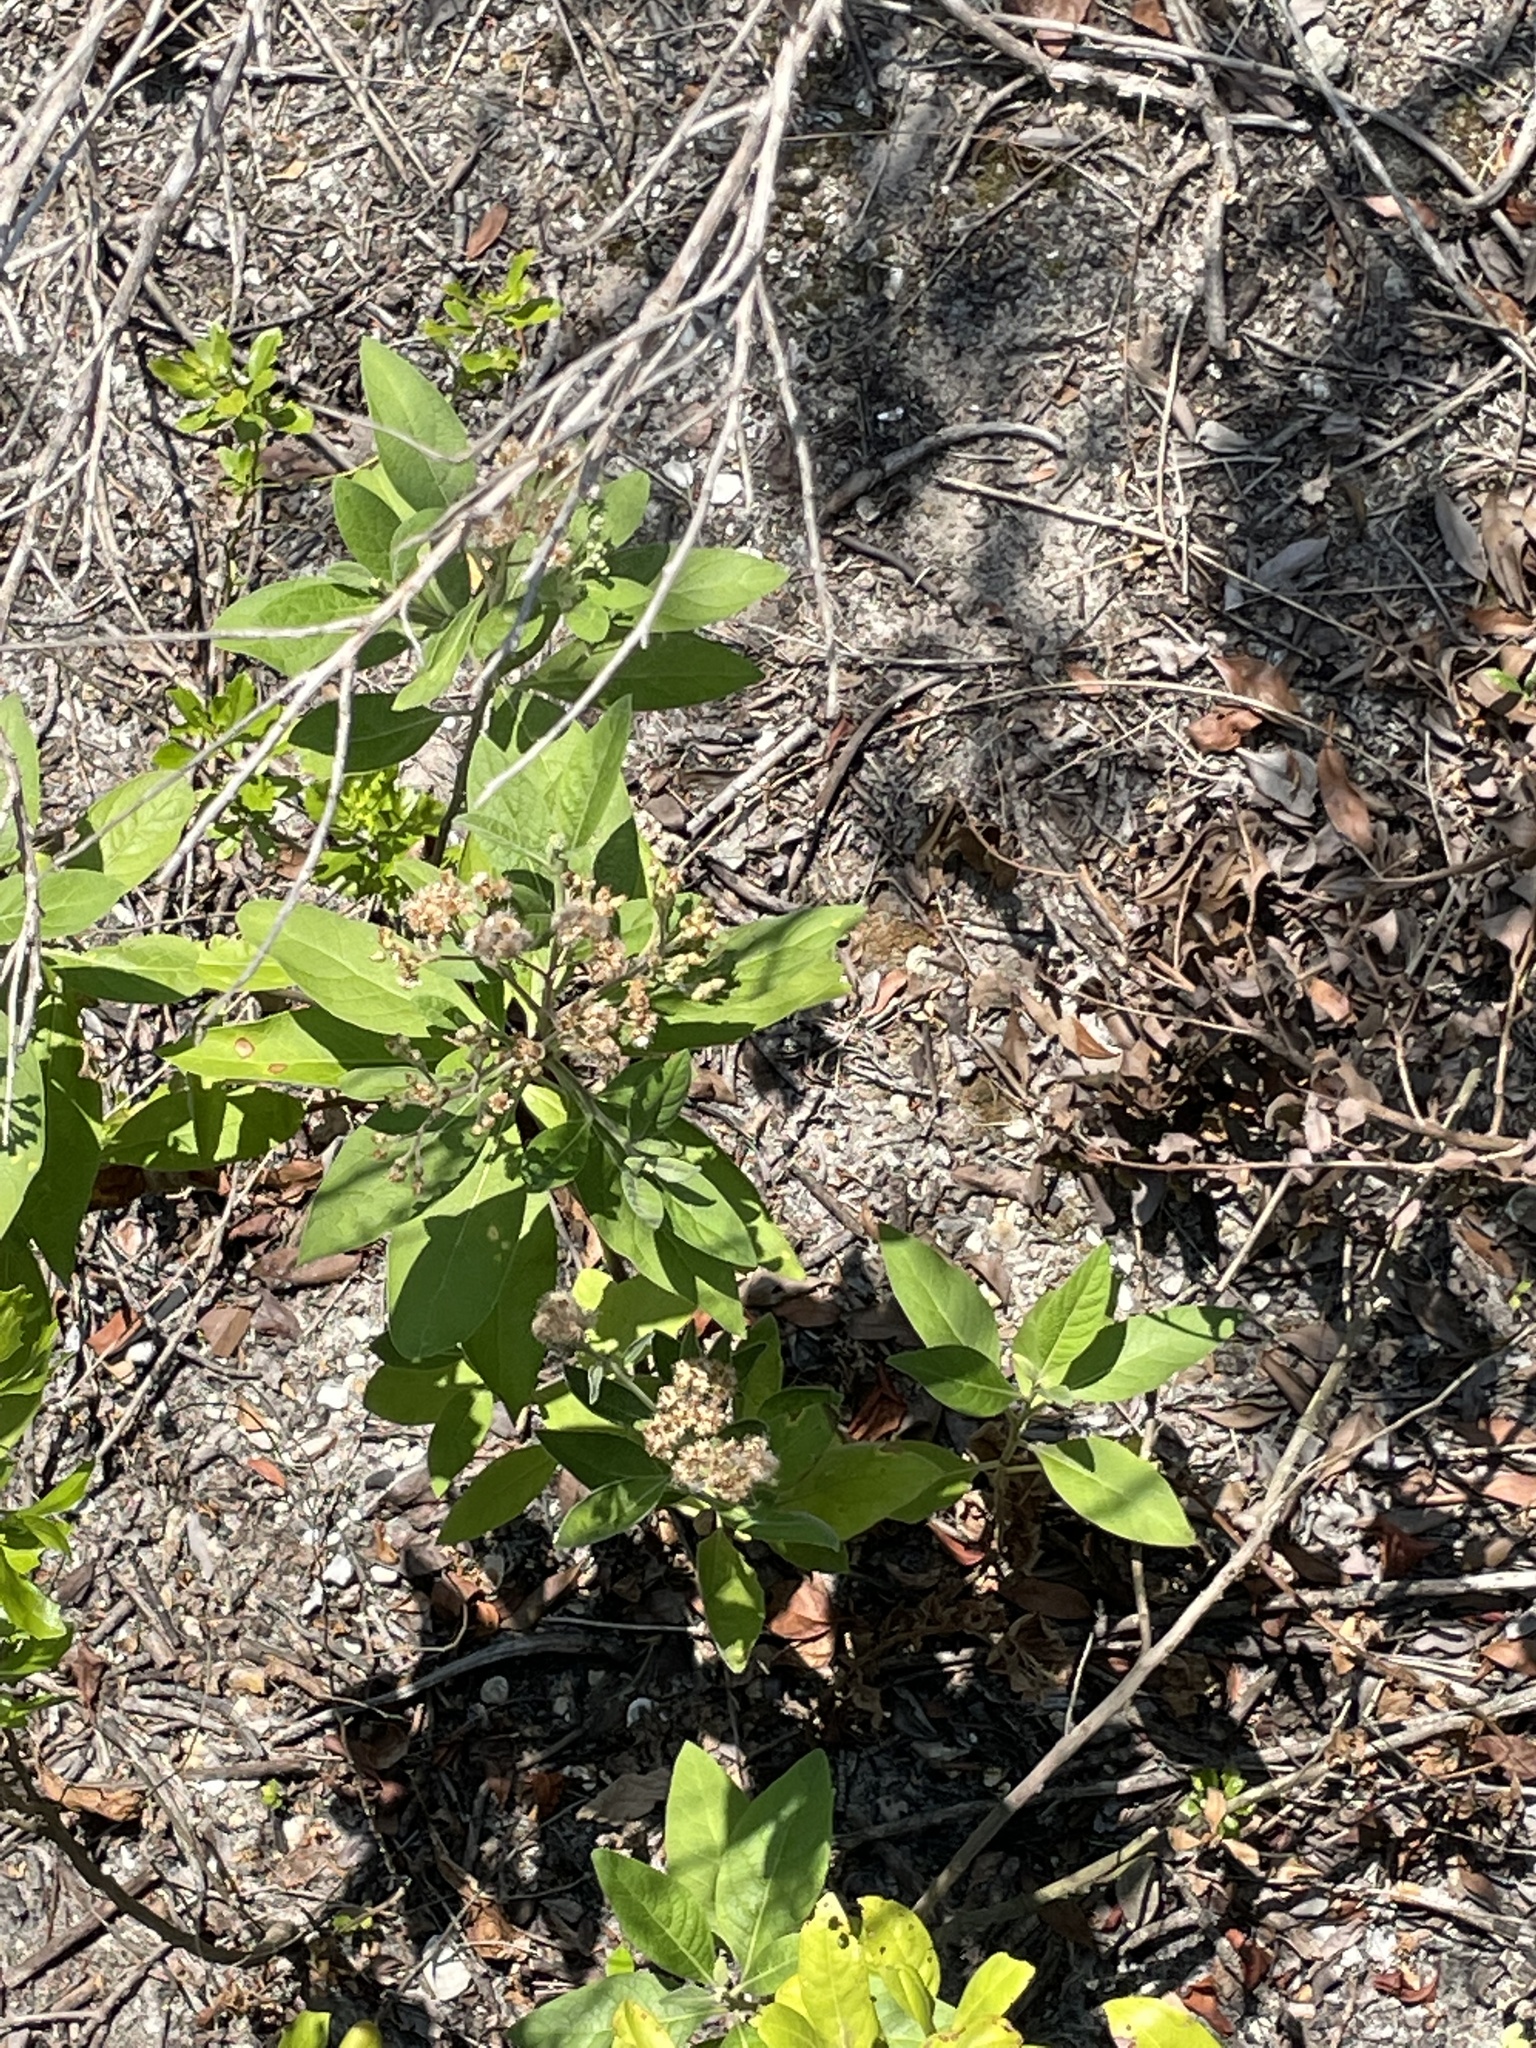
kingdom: Plantae
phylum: Tracheophyta
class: Magnoliopsida
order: Asterales
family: Asteraceae
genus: Pluchea
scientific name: Pluchea carolinensis
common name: Marsh fleabane
